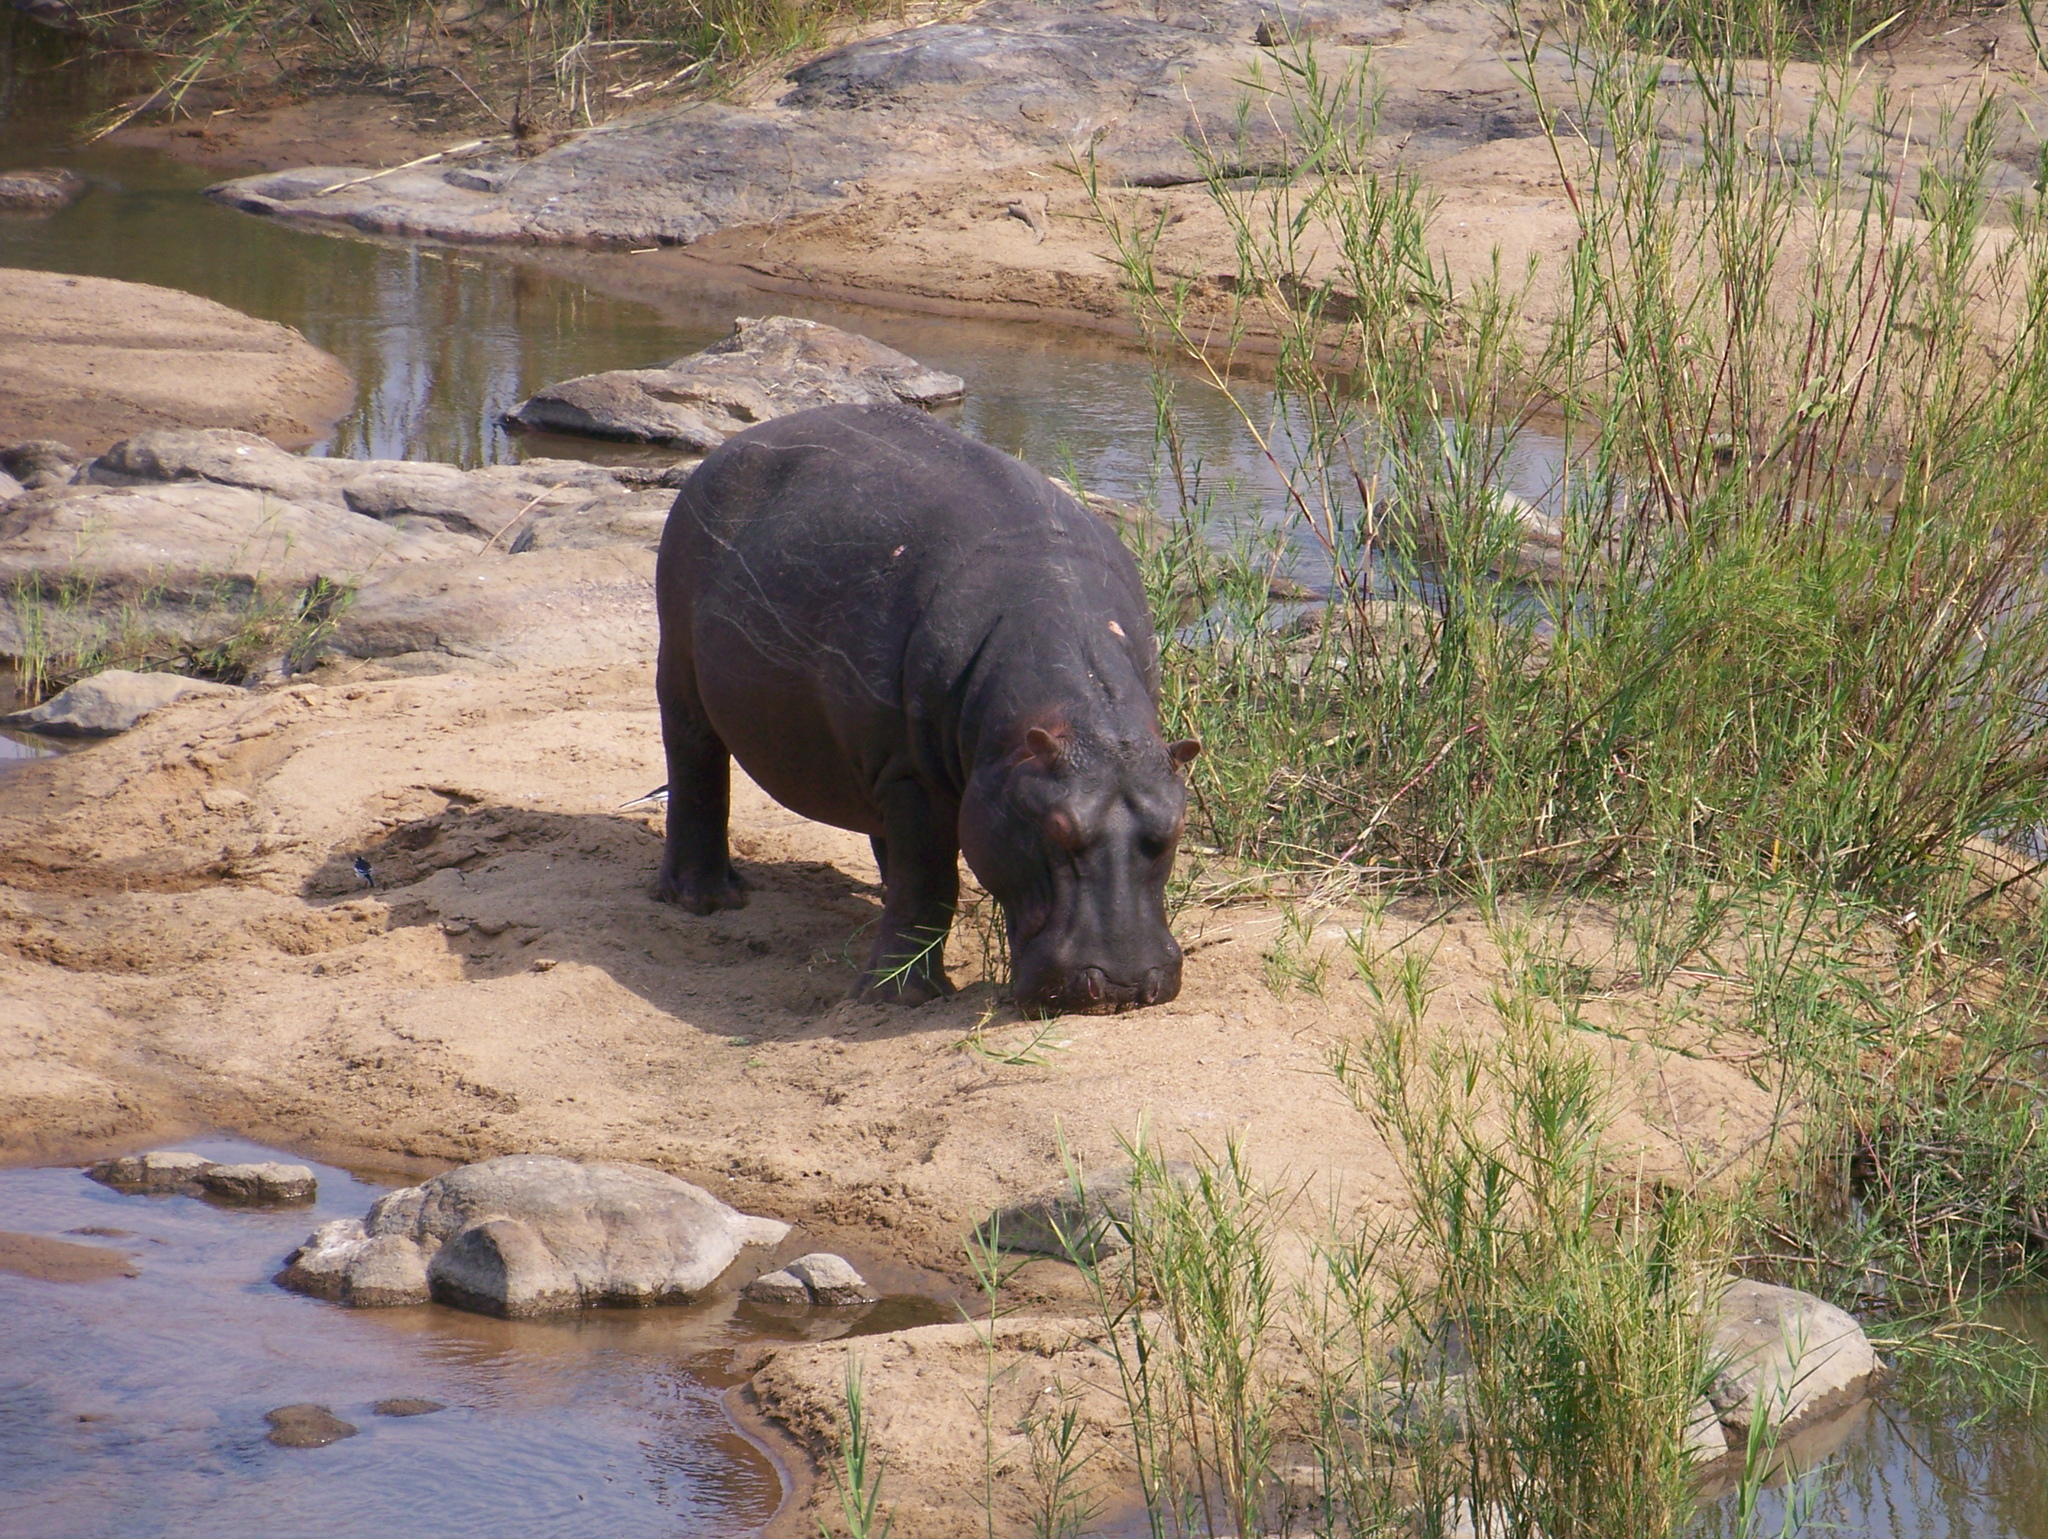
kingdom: Animalia
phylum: Chordata
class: Mammalia
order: Artiodactyla
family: Hippopotamidae
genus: Hippopotamus
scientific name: Hippopotamus amphibius
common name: Common hippopotamus
